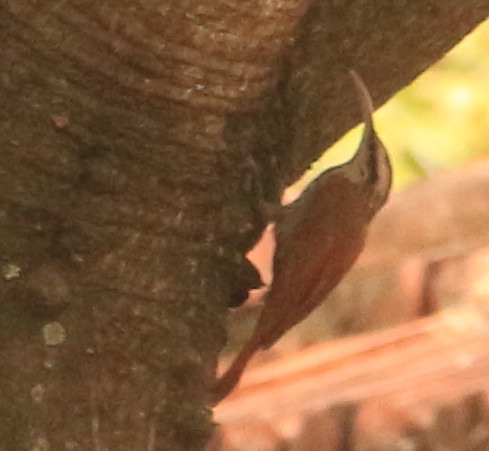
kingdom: Animalia
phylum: Chordata
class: Aves
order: Passeriformes
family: Furnariidae
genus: Lepidocolaptes
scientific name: Lepidocolaptes angustirostris
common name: Narrow-billed woodcreeper
